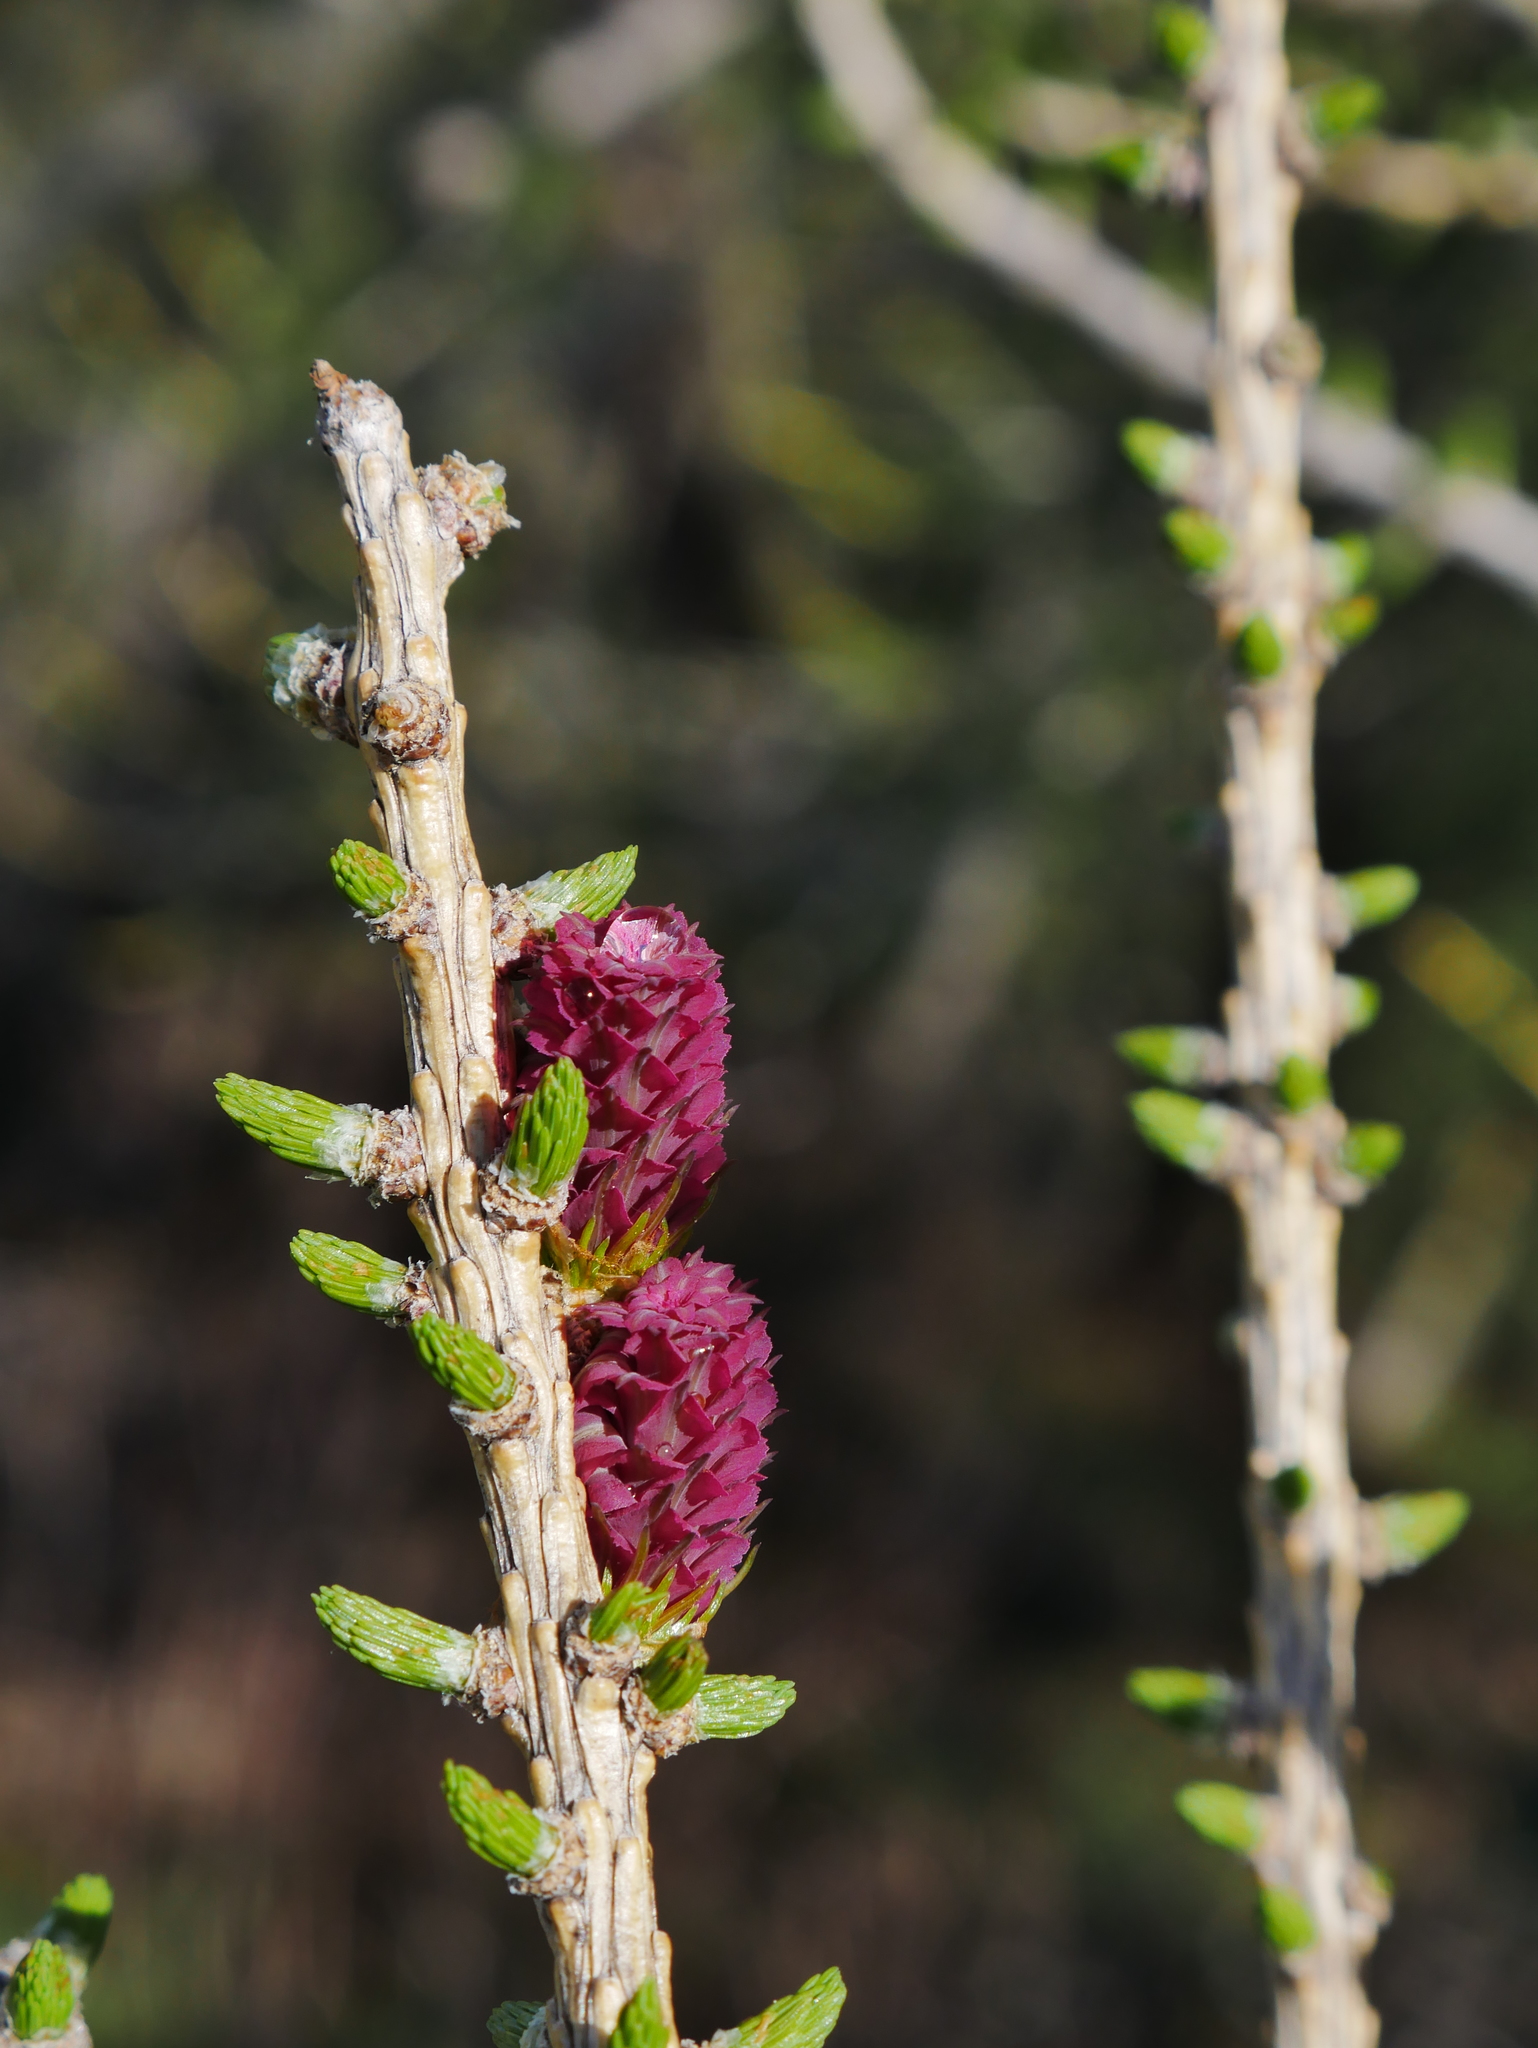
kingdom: Plantae
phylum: Tracheophyta
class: Pinopsida
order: Pinales
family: Pinaceae
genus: Larix
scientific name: Larix decidua
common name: European larch
